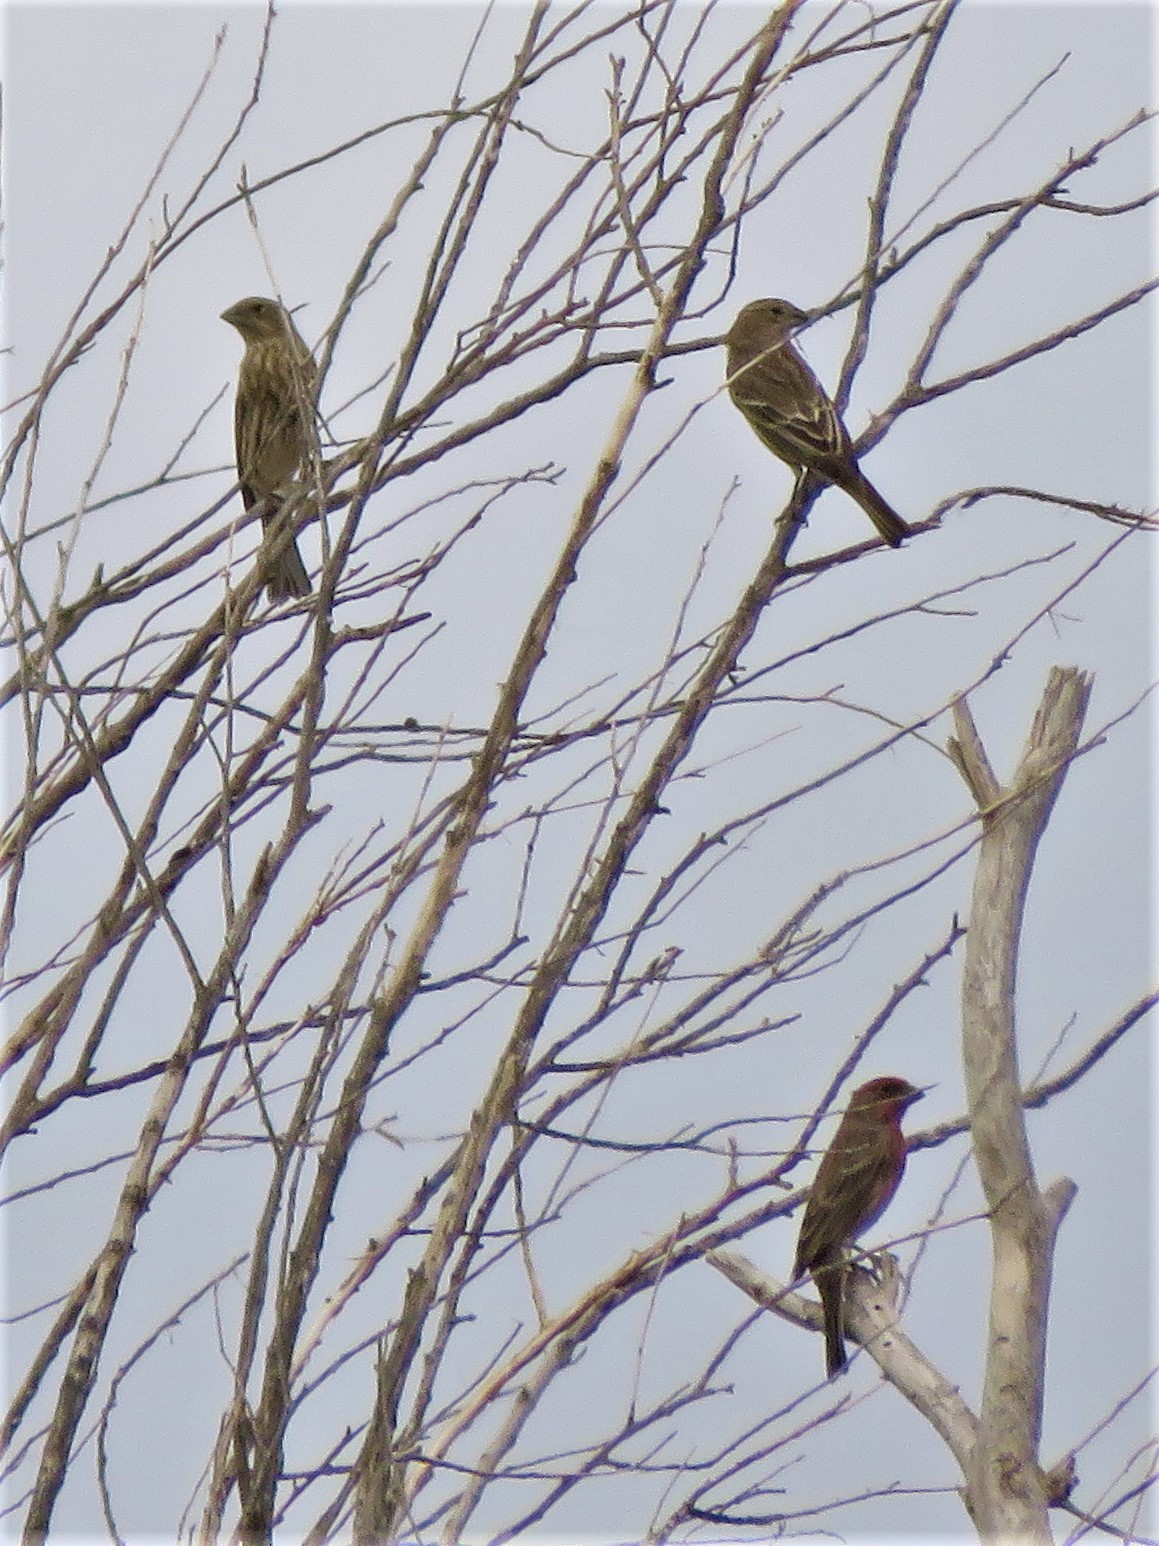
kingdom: Animalia
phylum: Chordata
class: Aves
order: Passeriformes
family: Fringillidae
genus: Haemorhous
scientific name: Haemorhous mexicanus
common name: House finch
